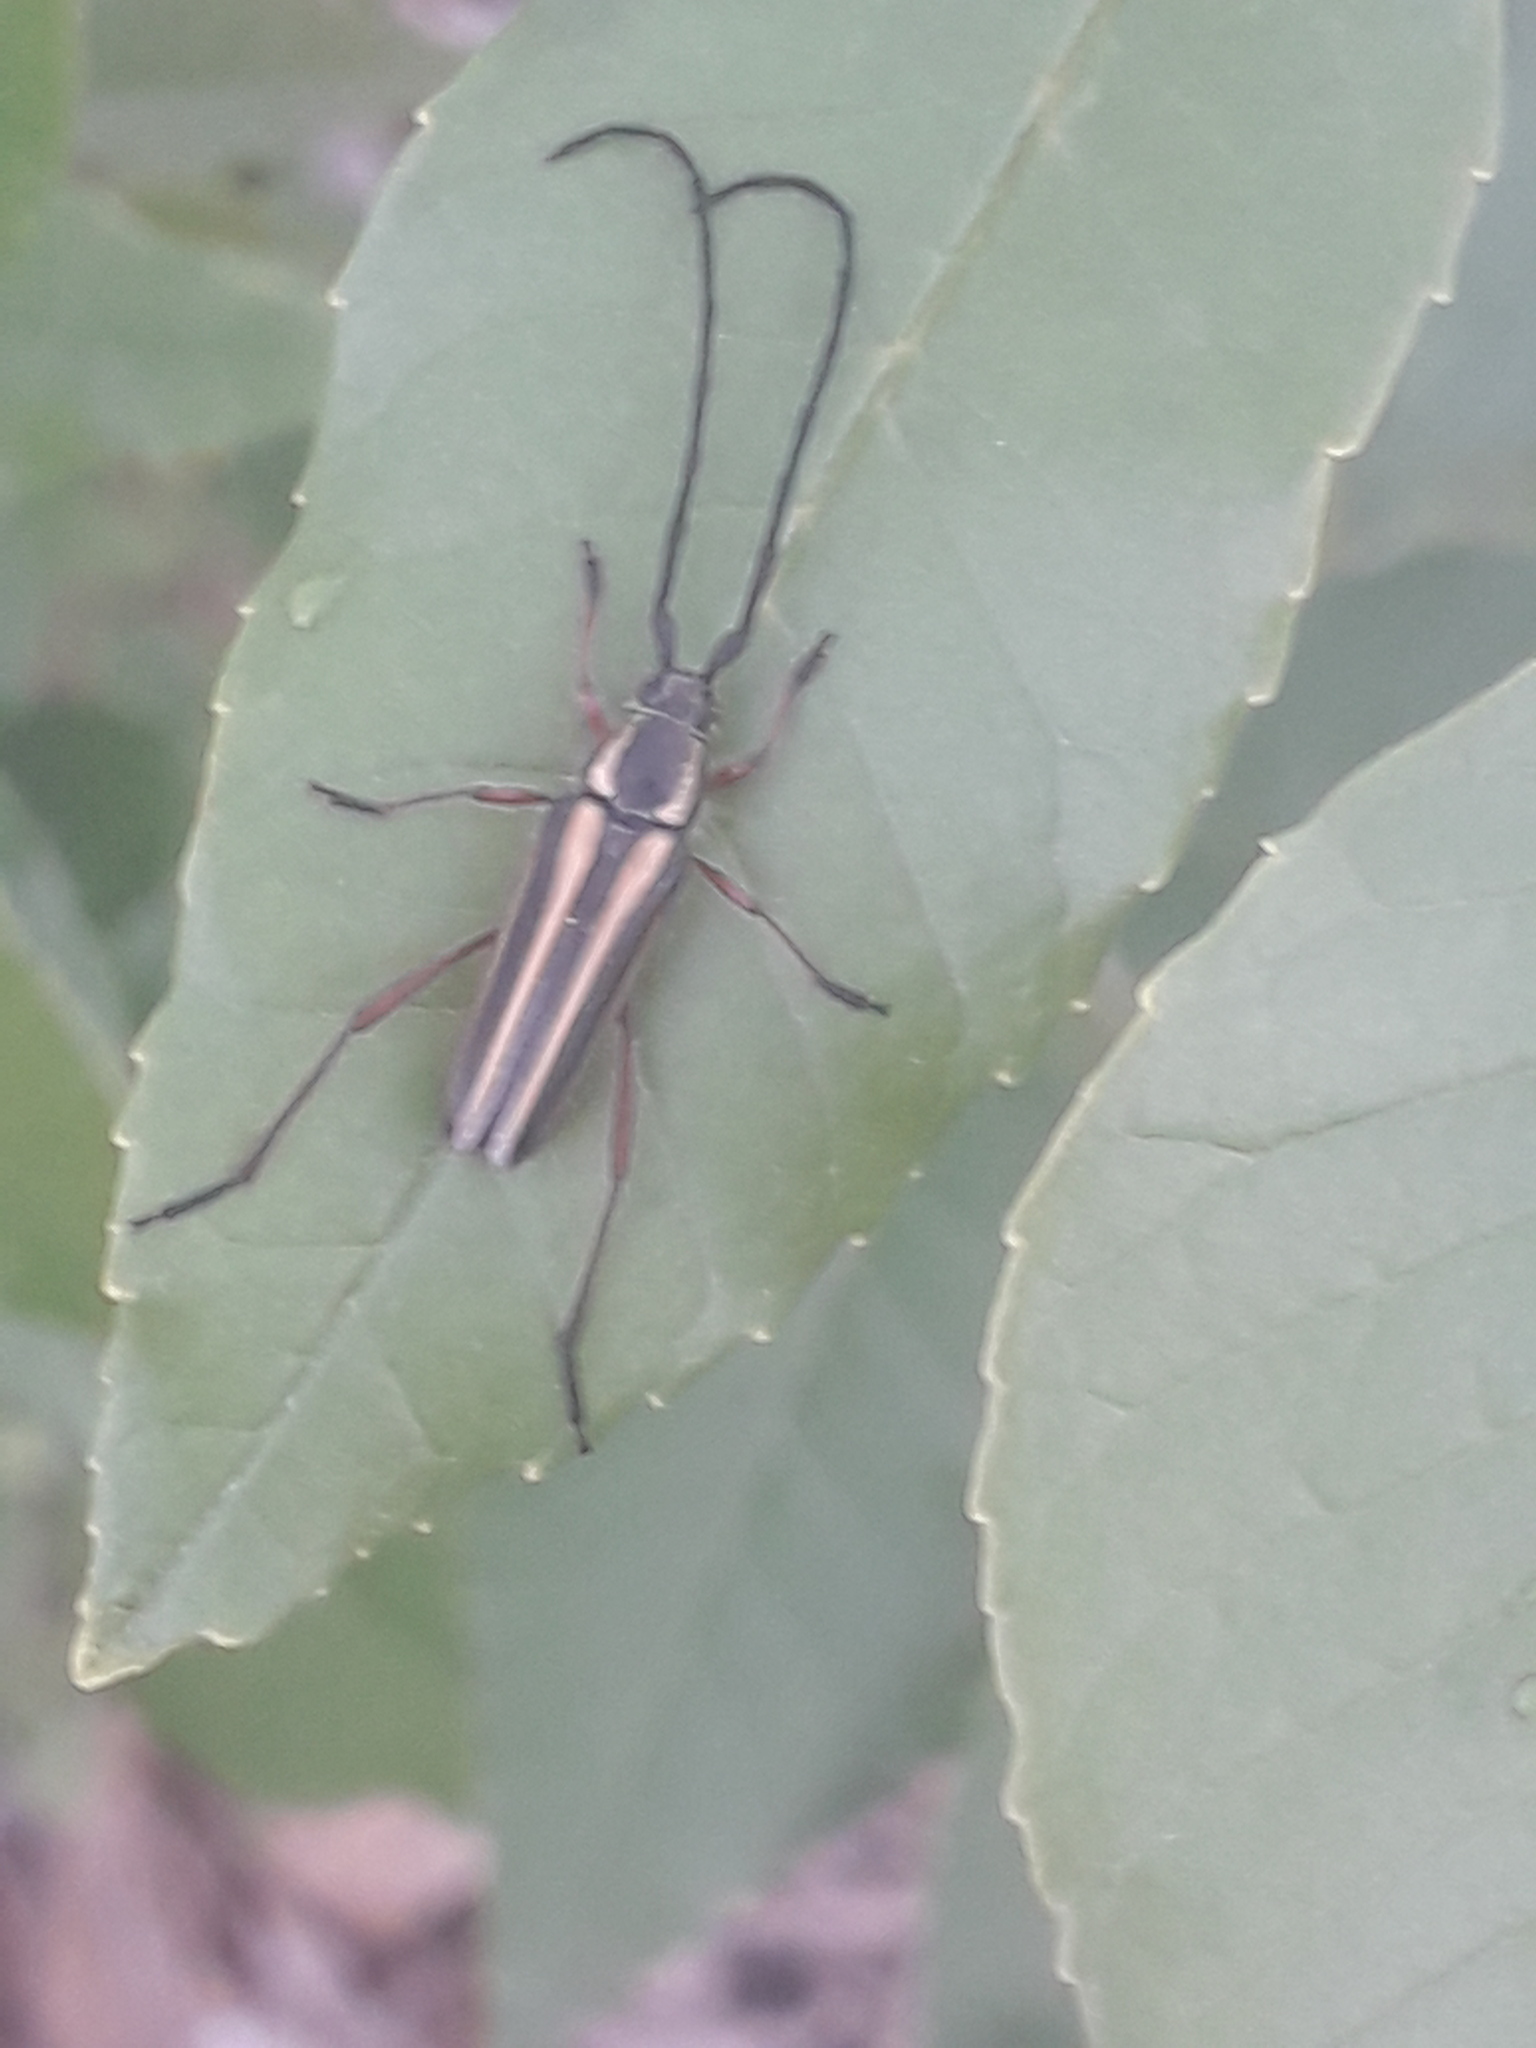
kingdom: Animalia
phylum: Arthropoda
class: Insecta
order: Coleoptera
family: Cerambycidae
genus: Sphaenothecus
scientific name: Sphaenothecus bilineatus
